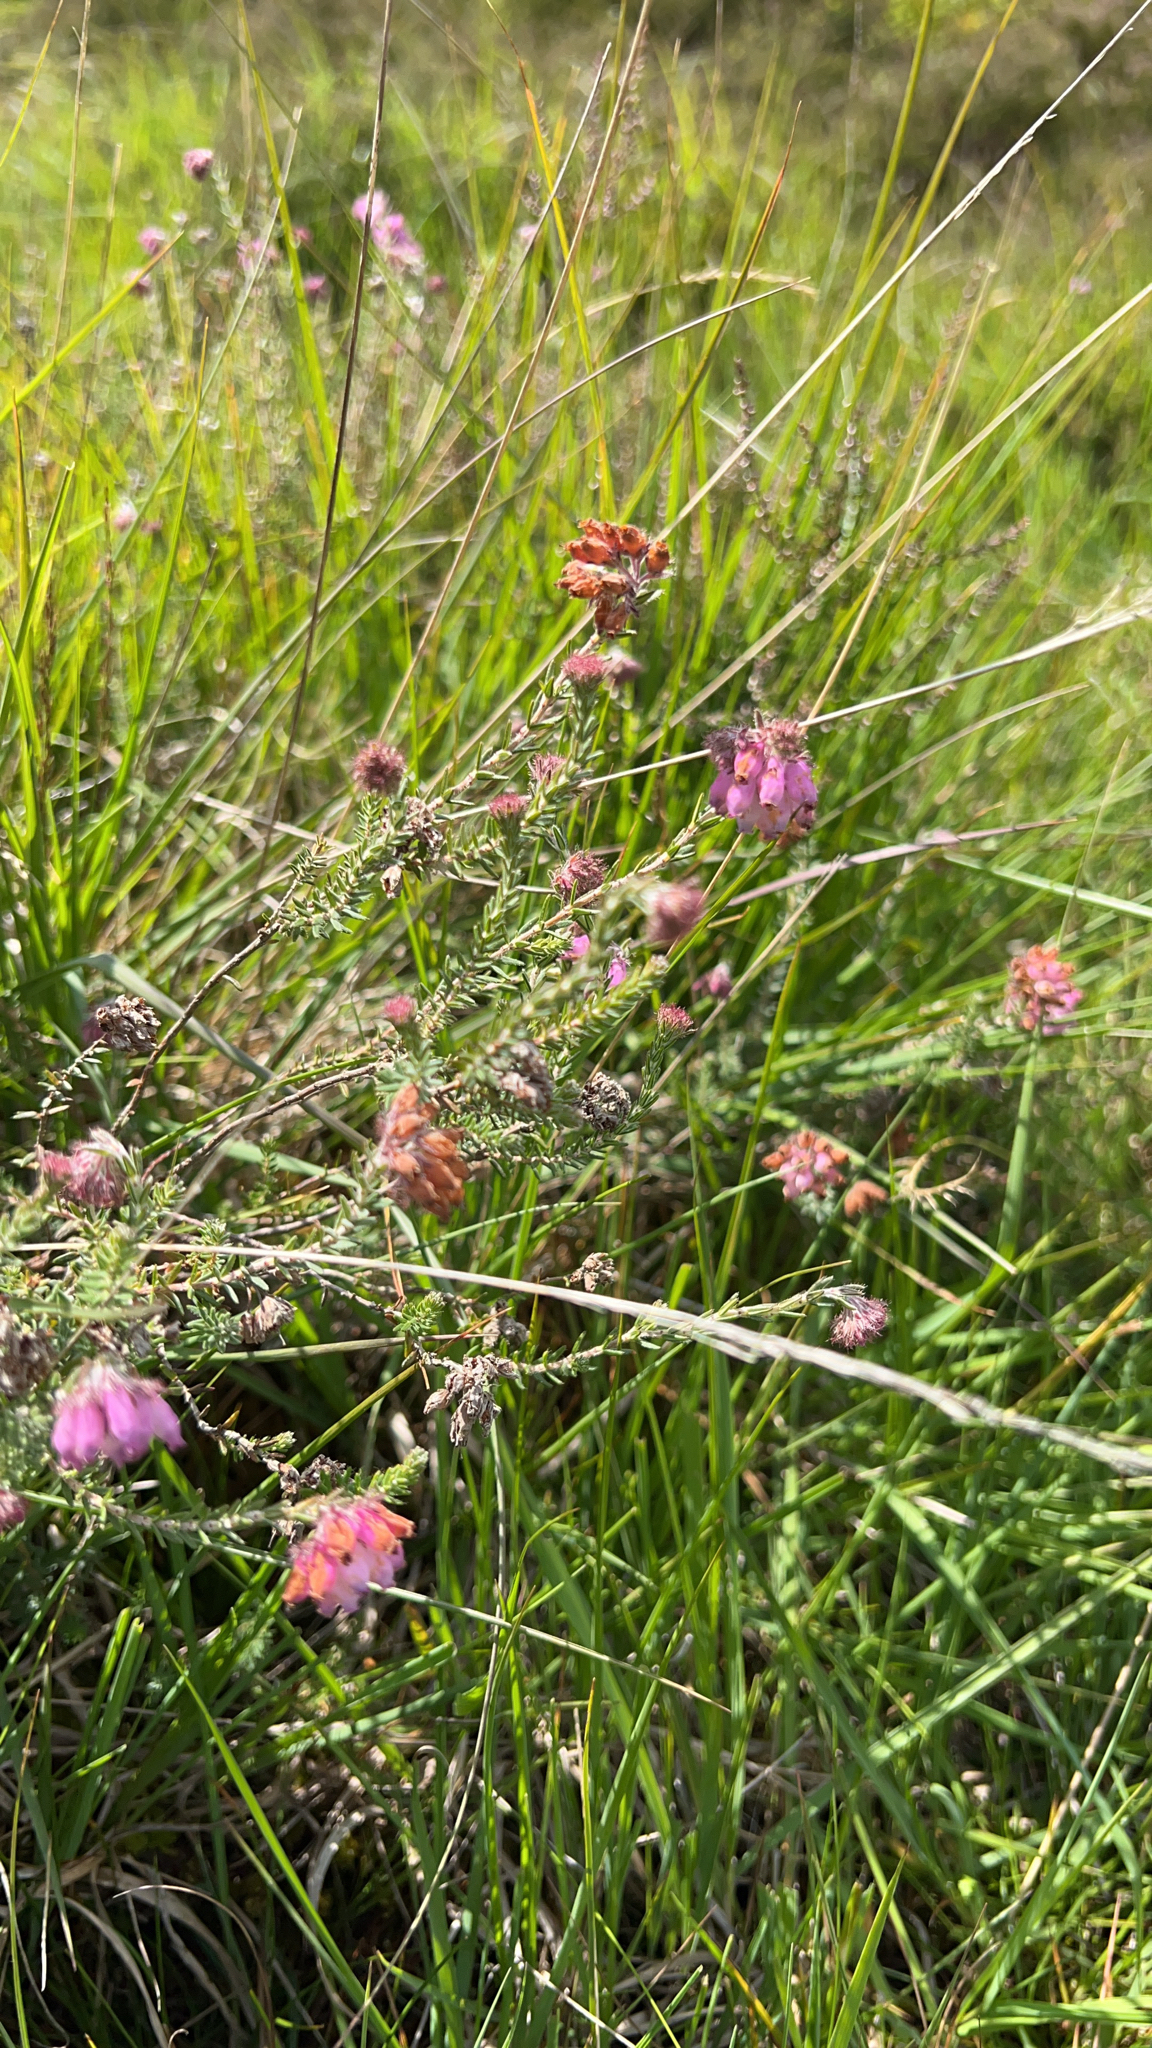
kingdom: Plantae
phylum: Tracheophyta
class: Magnoliopsida
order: Ericales
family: Ericaceae
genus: Erica
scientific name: Erica tetralix
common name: Cross-leaved heath
